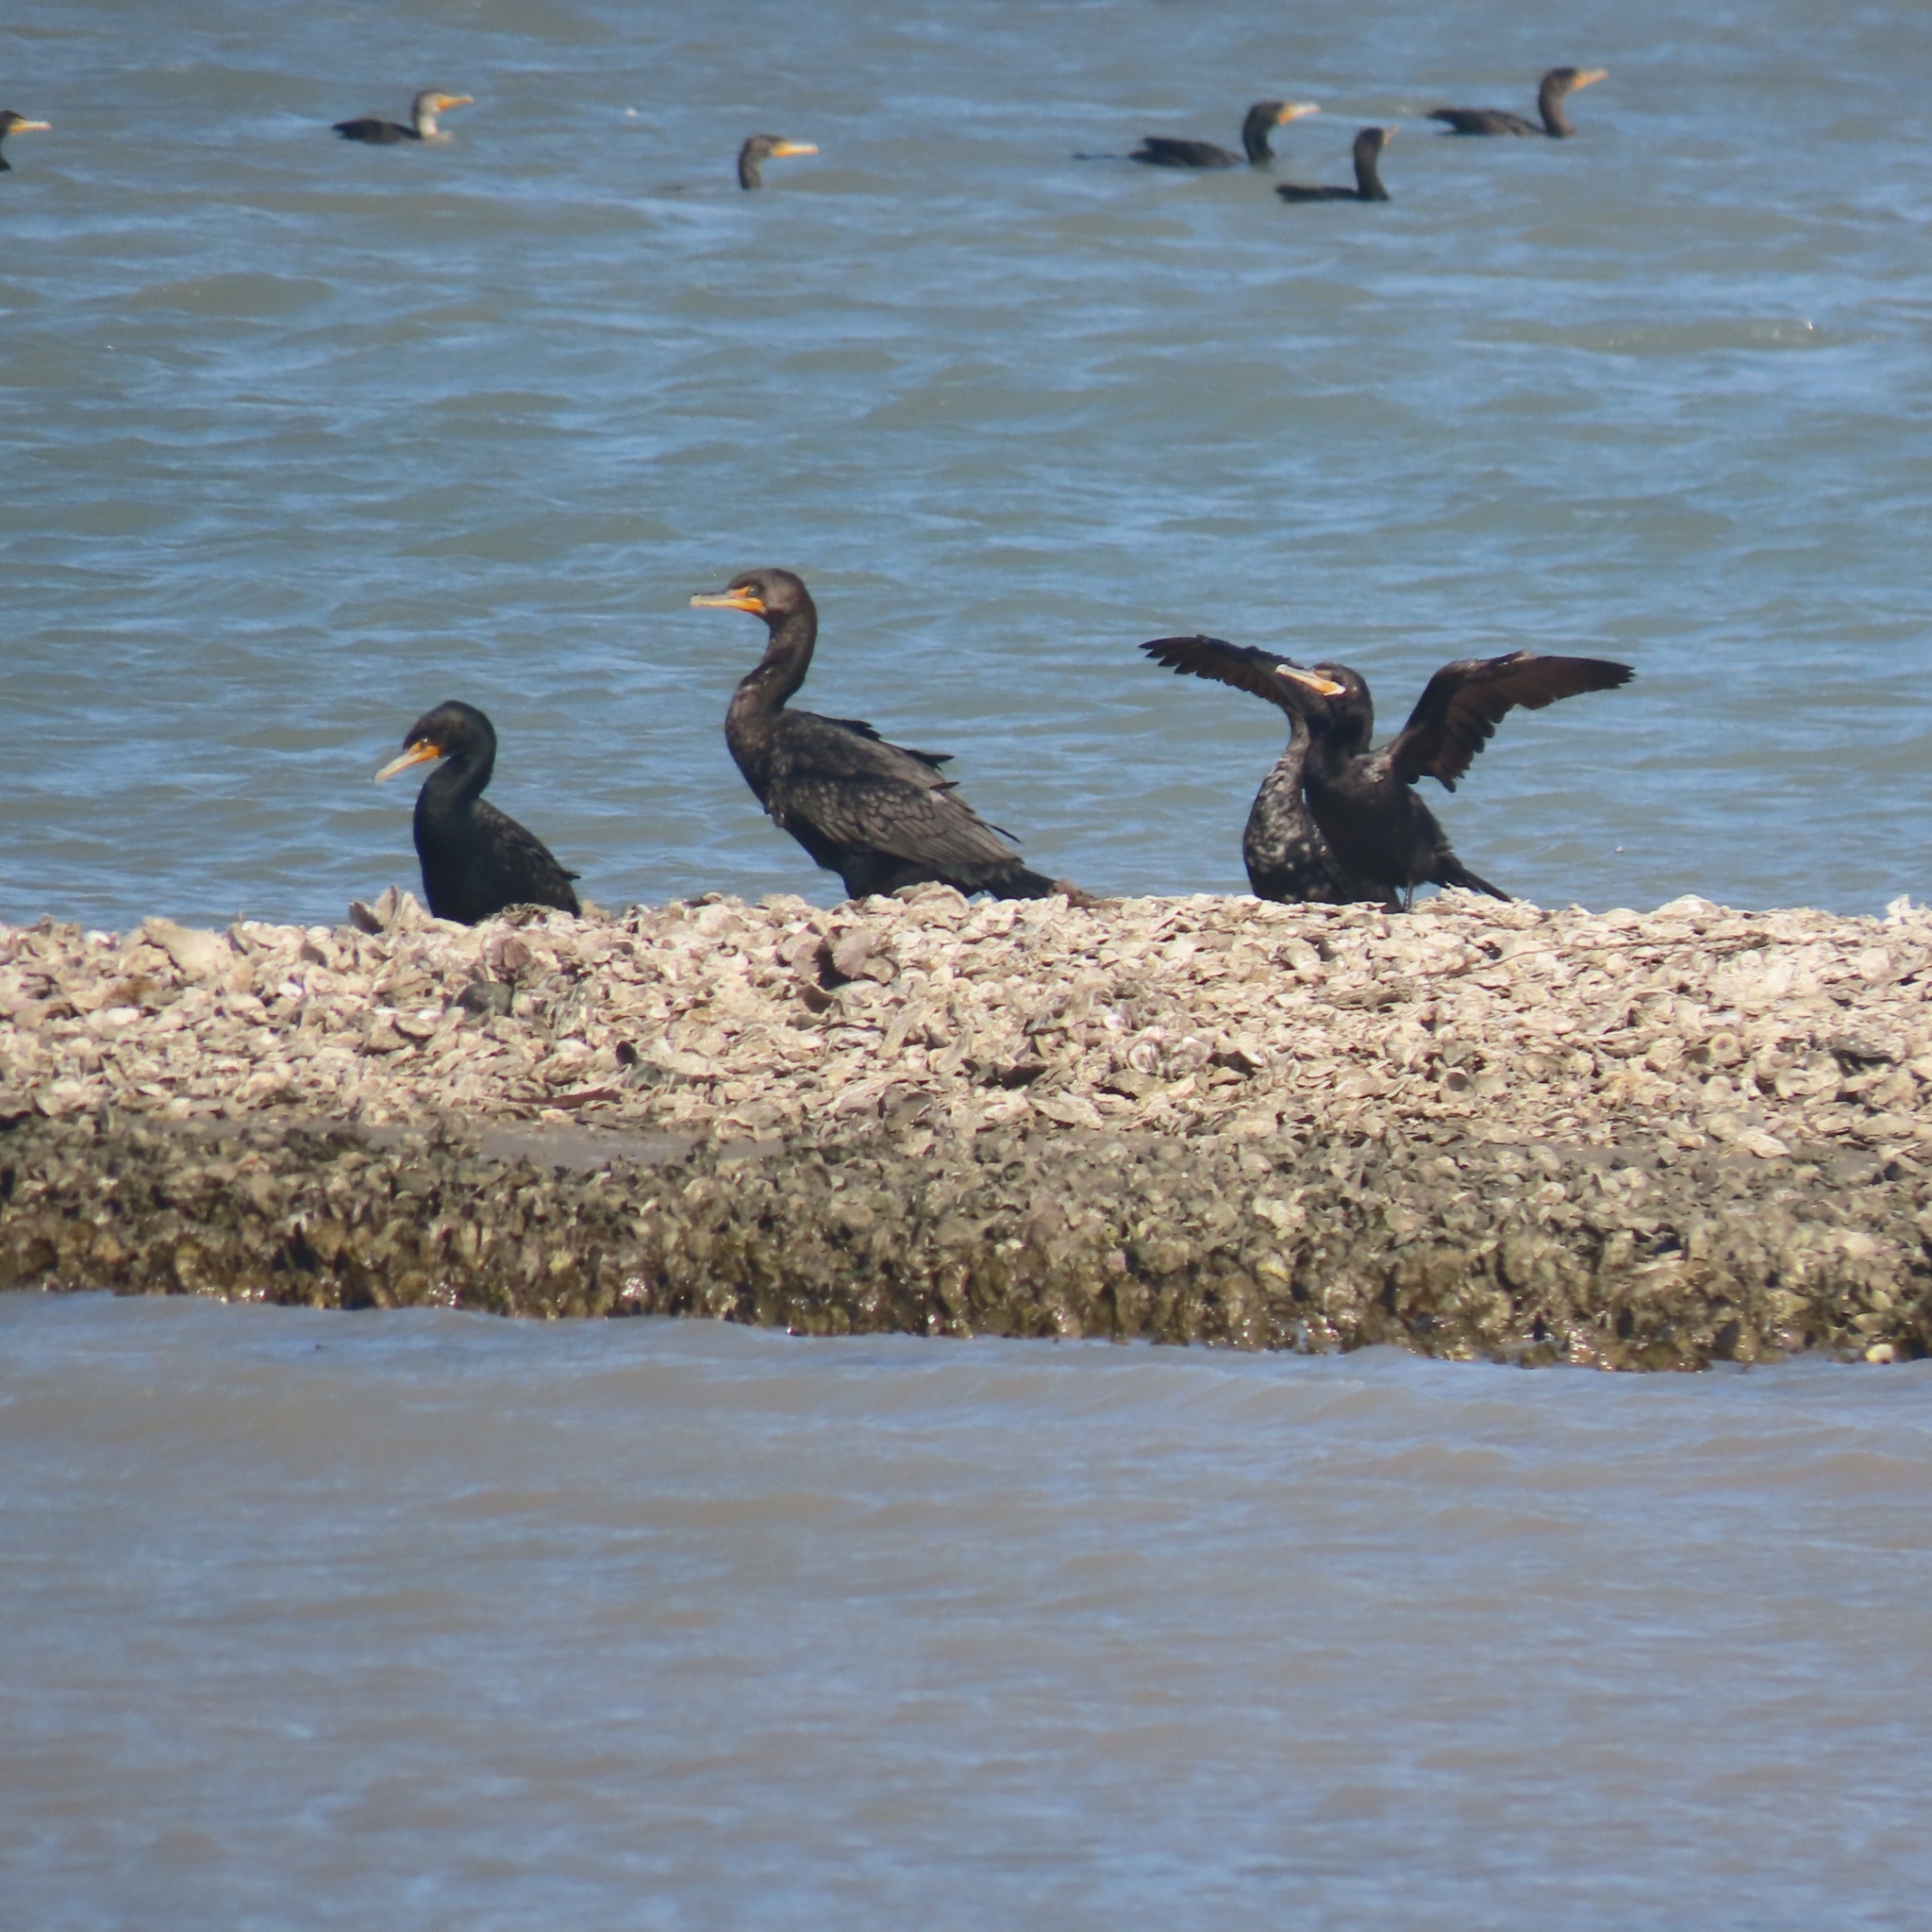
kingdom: Animalia
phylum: Chordata
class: Aves
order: Suliformes
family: Phalacrocoracidae
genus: Phalacrocorax
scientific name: Phalacrocorax auritus
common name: Double-crested cormorant
